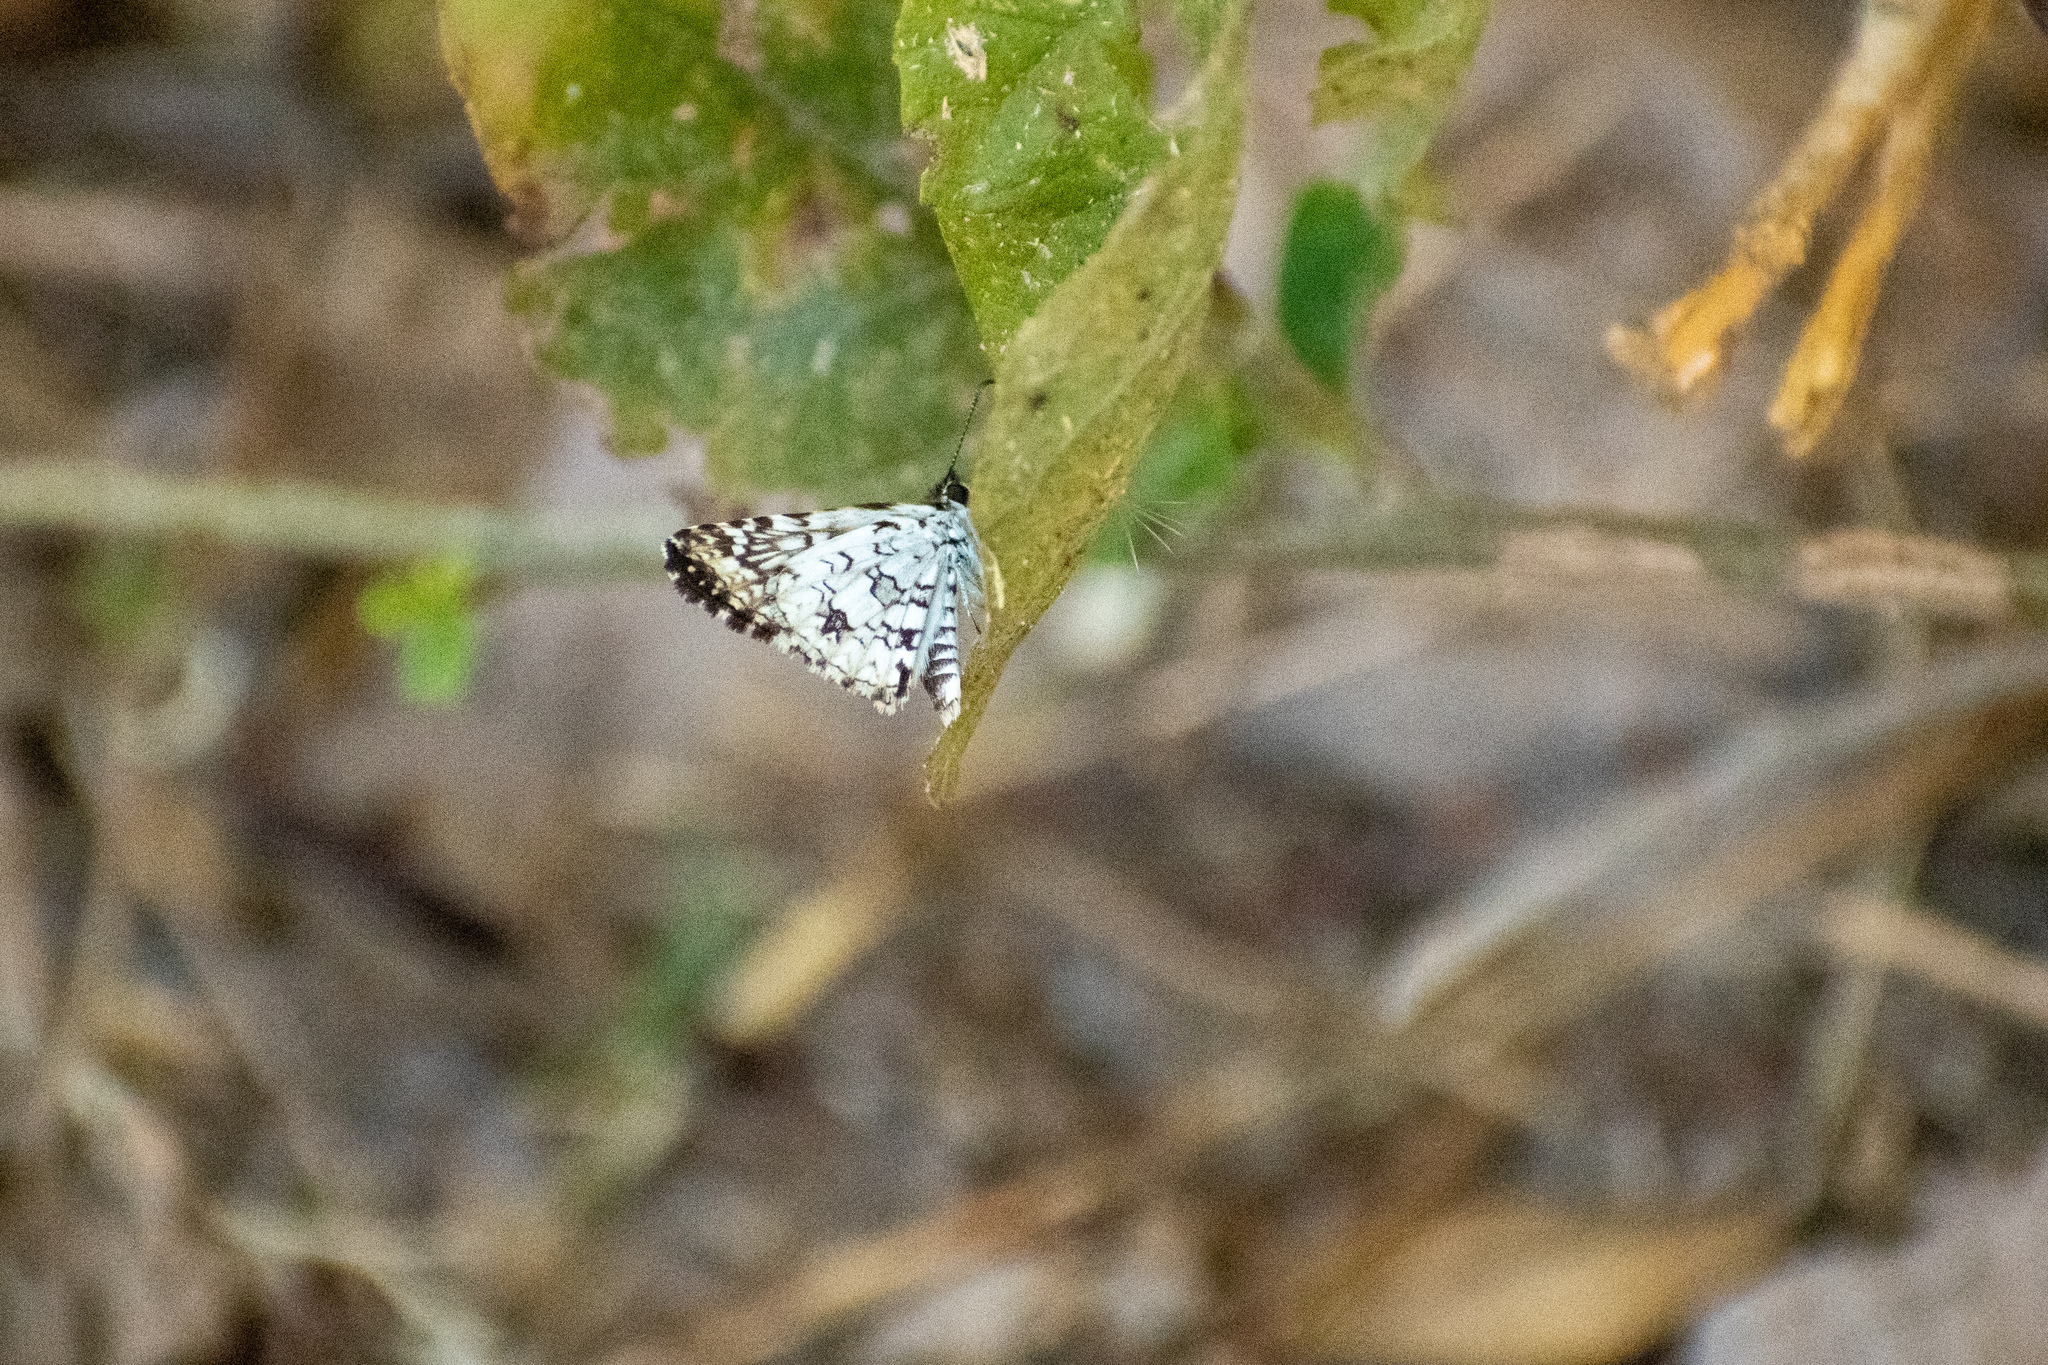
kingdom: Animalia
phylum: Arthropoda
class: Insecta
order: Lepidoptera
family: Hesperiidae
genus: Pyrgus
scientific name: Pyrgus oileus
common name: Tropical checkered-skipper
